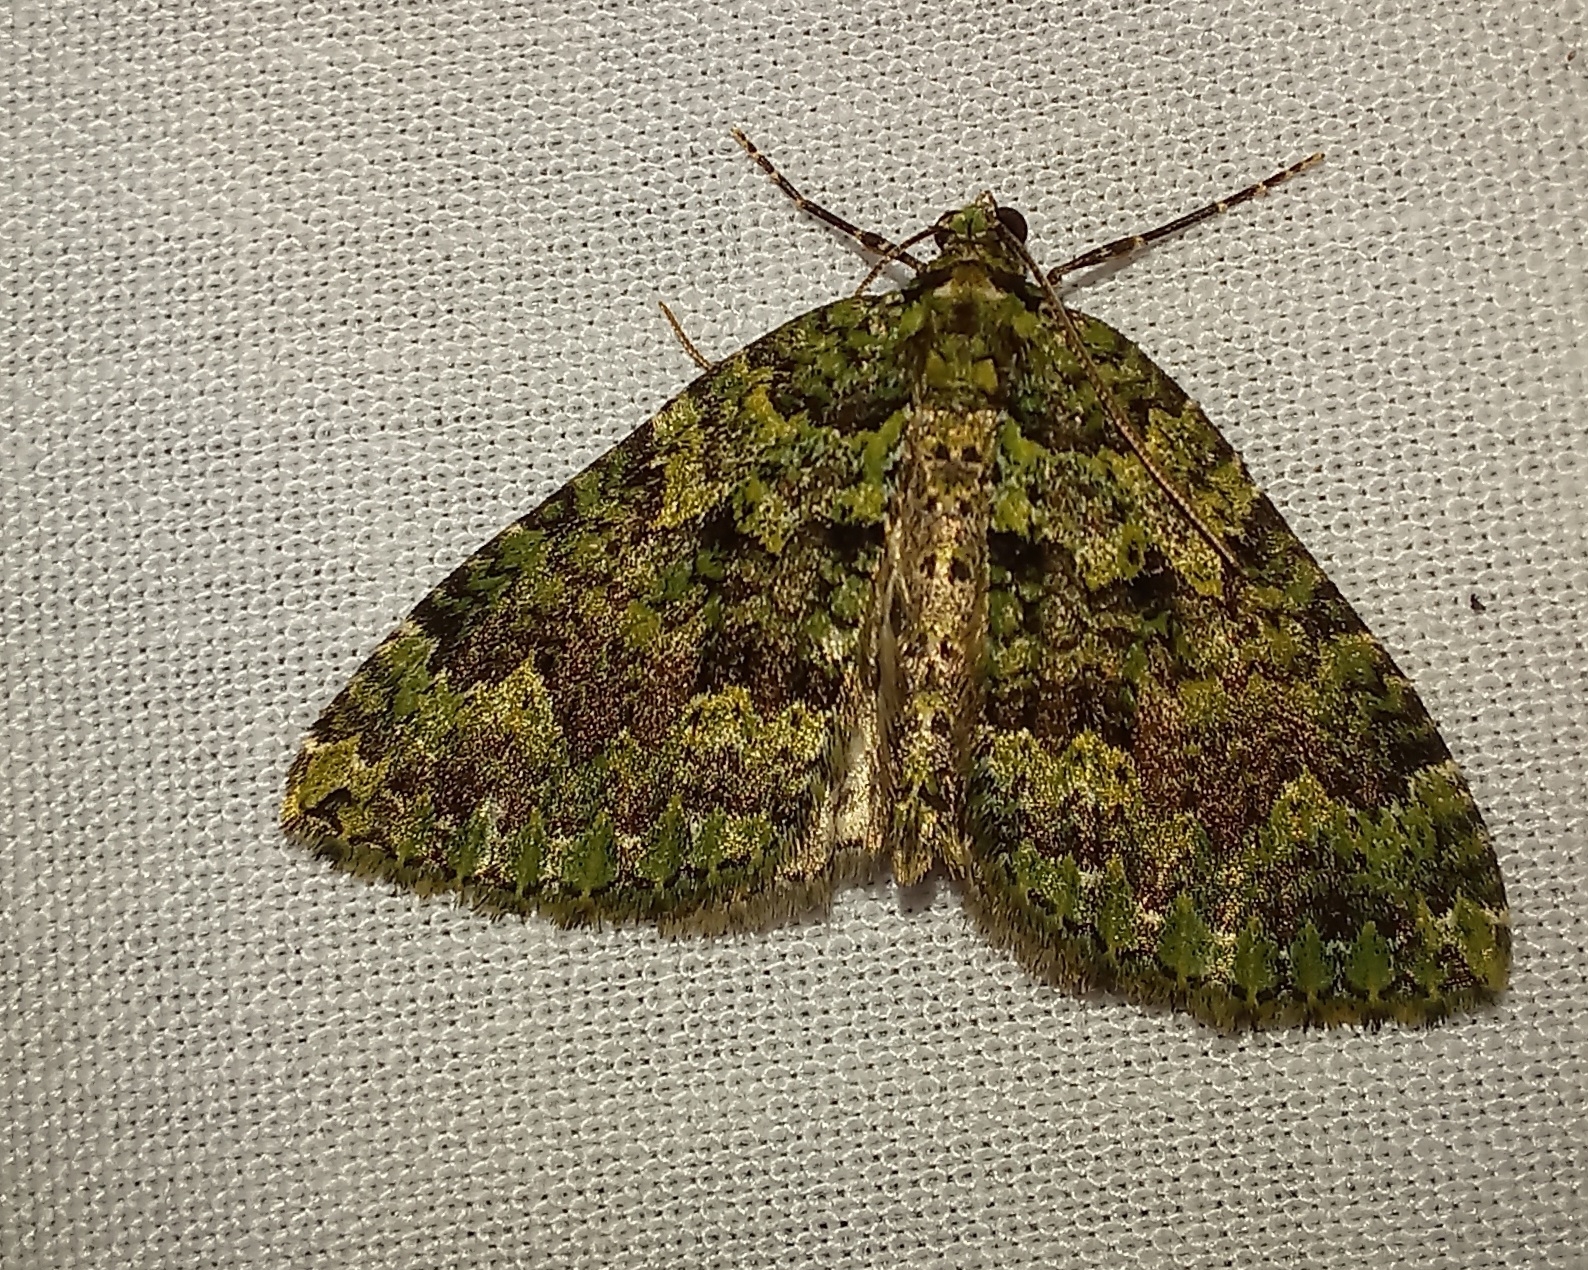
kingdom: Animalia
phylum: Arthropoda
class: Insecta
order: Lepidoptera
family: Geometridae
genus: Austrocidaria
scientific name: Austrocidaria callichlora
